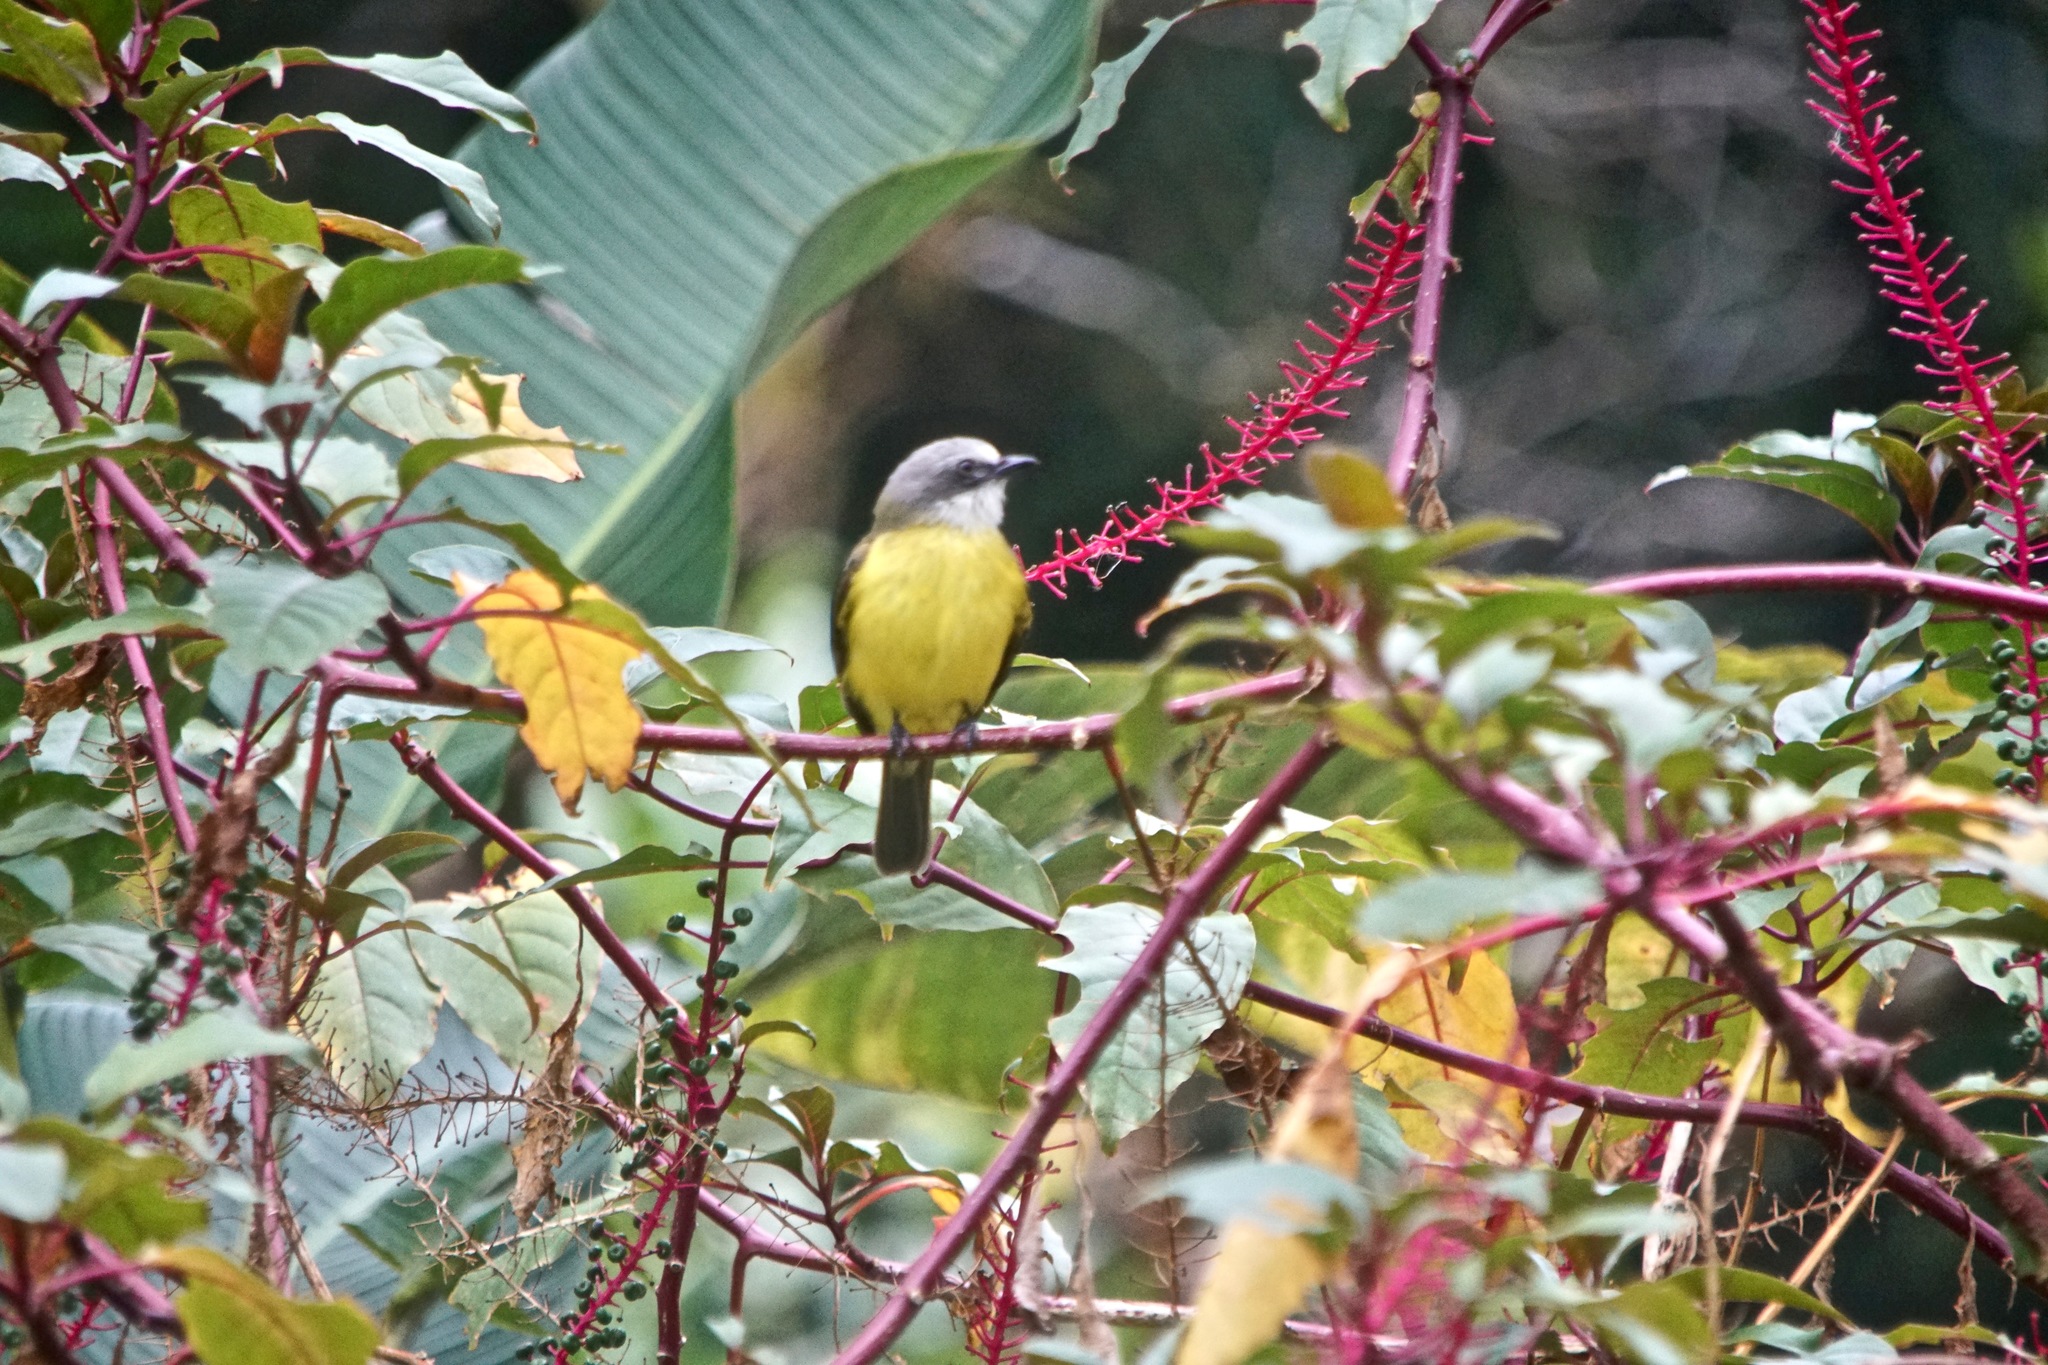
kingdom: Animalia
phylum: Chordata
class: Aves
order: Passeriformes
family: Tyrannidae
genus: Myiozetetes
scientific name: Myiozetetes granadensis
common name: Gray-capped flycatcher
